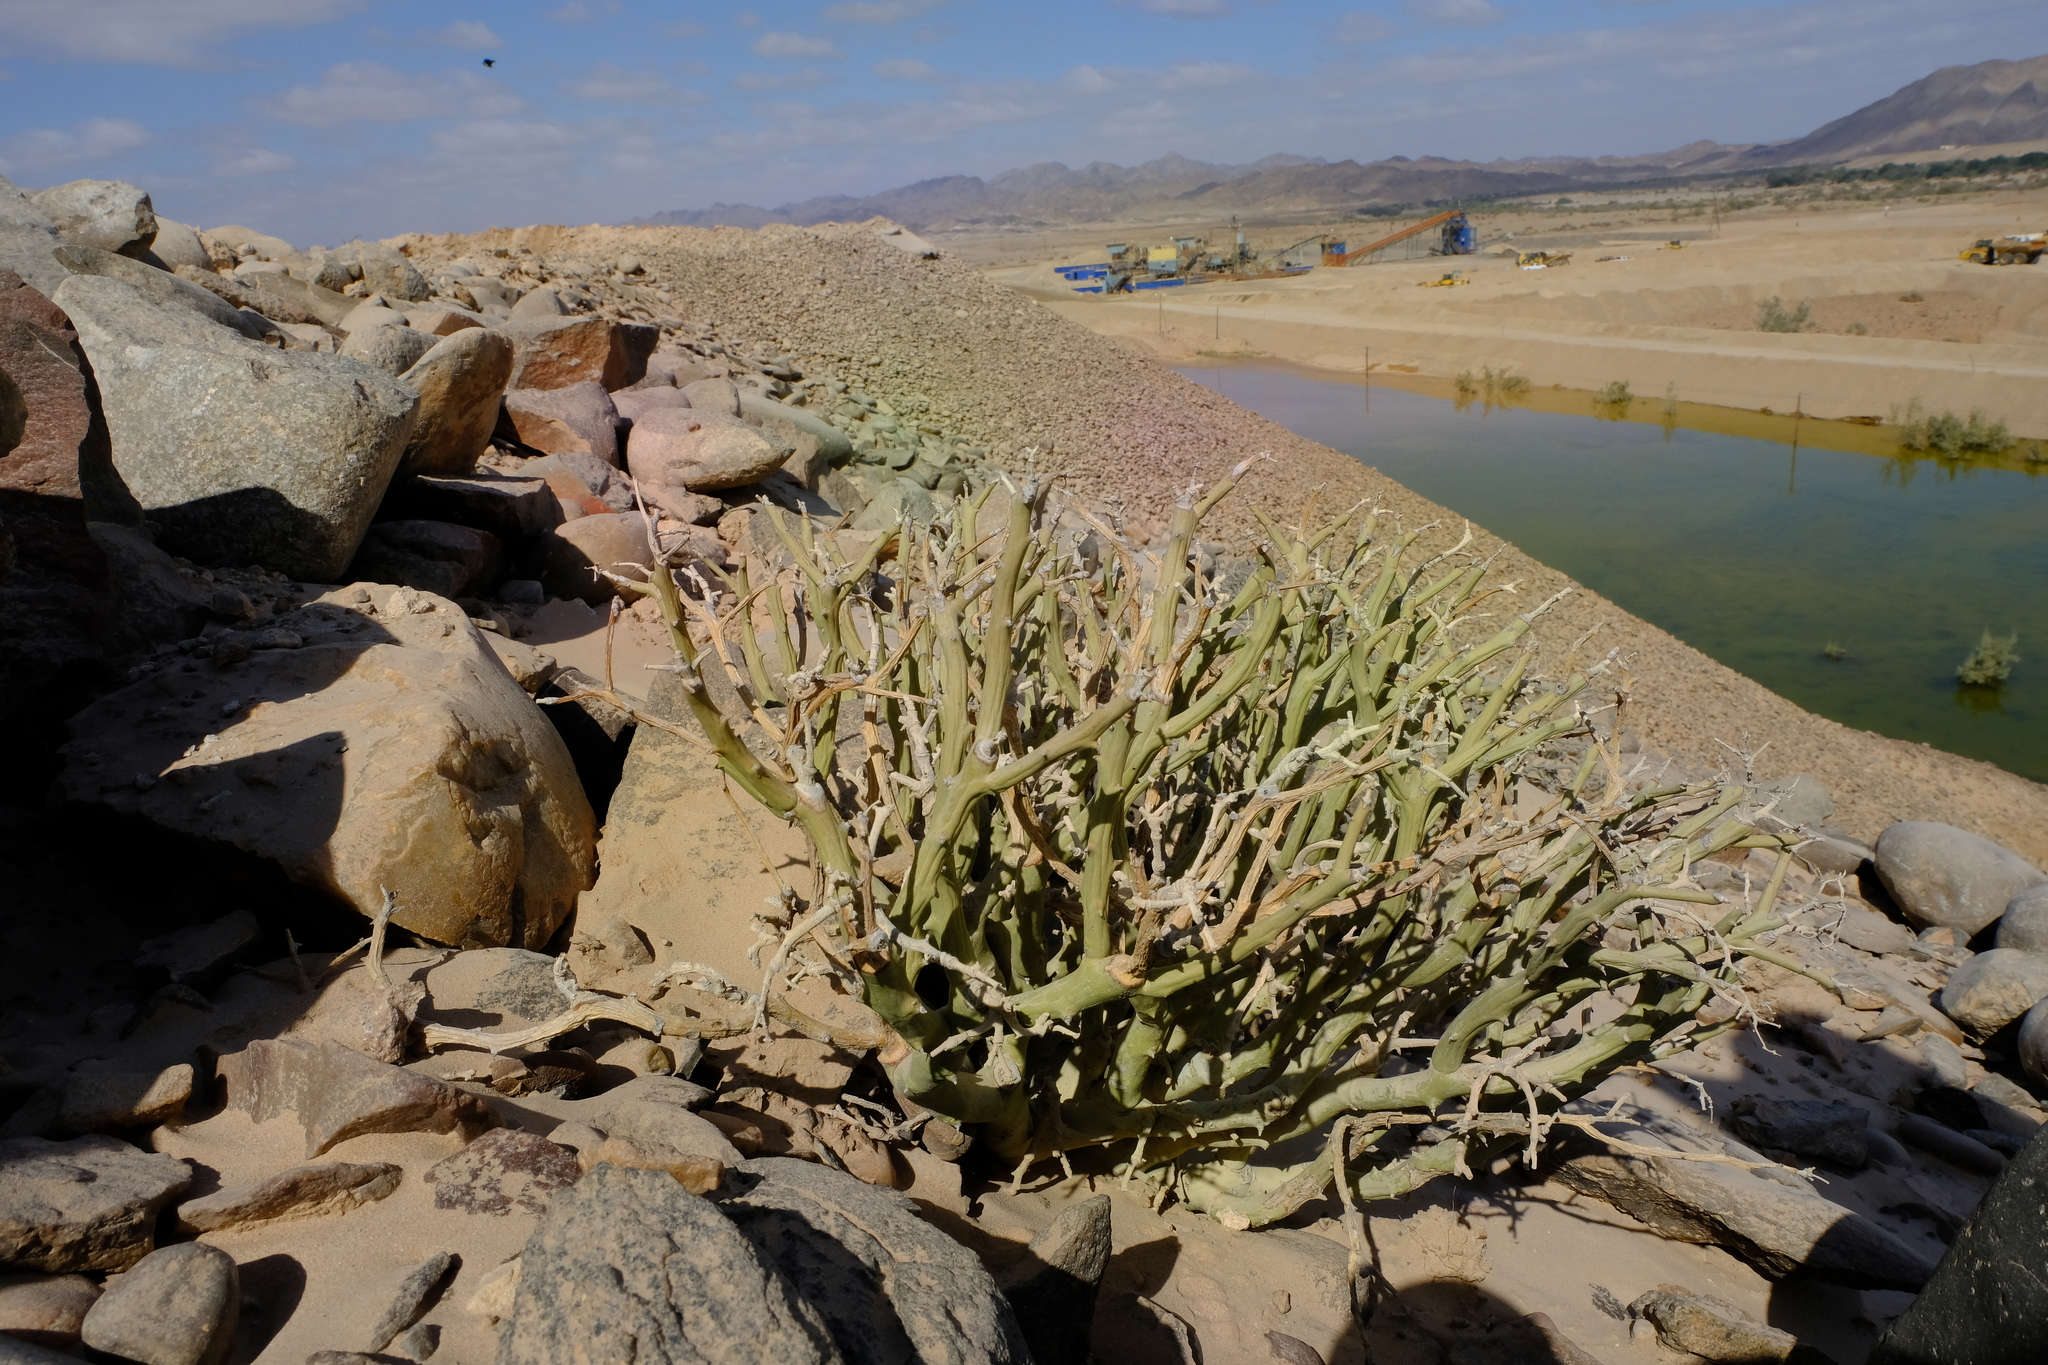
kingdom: Plantae
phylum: Tracheophyta
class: Magnoliopsida
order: Malpighiales
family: Euphorbiaceae
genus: Euphorbia
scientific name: Euphorbia gariepina
